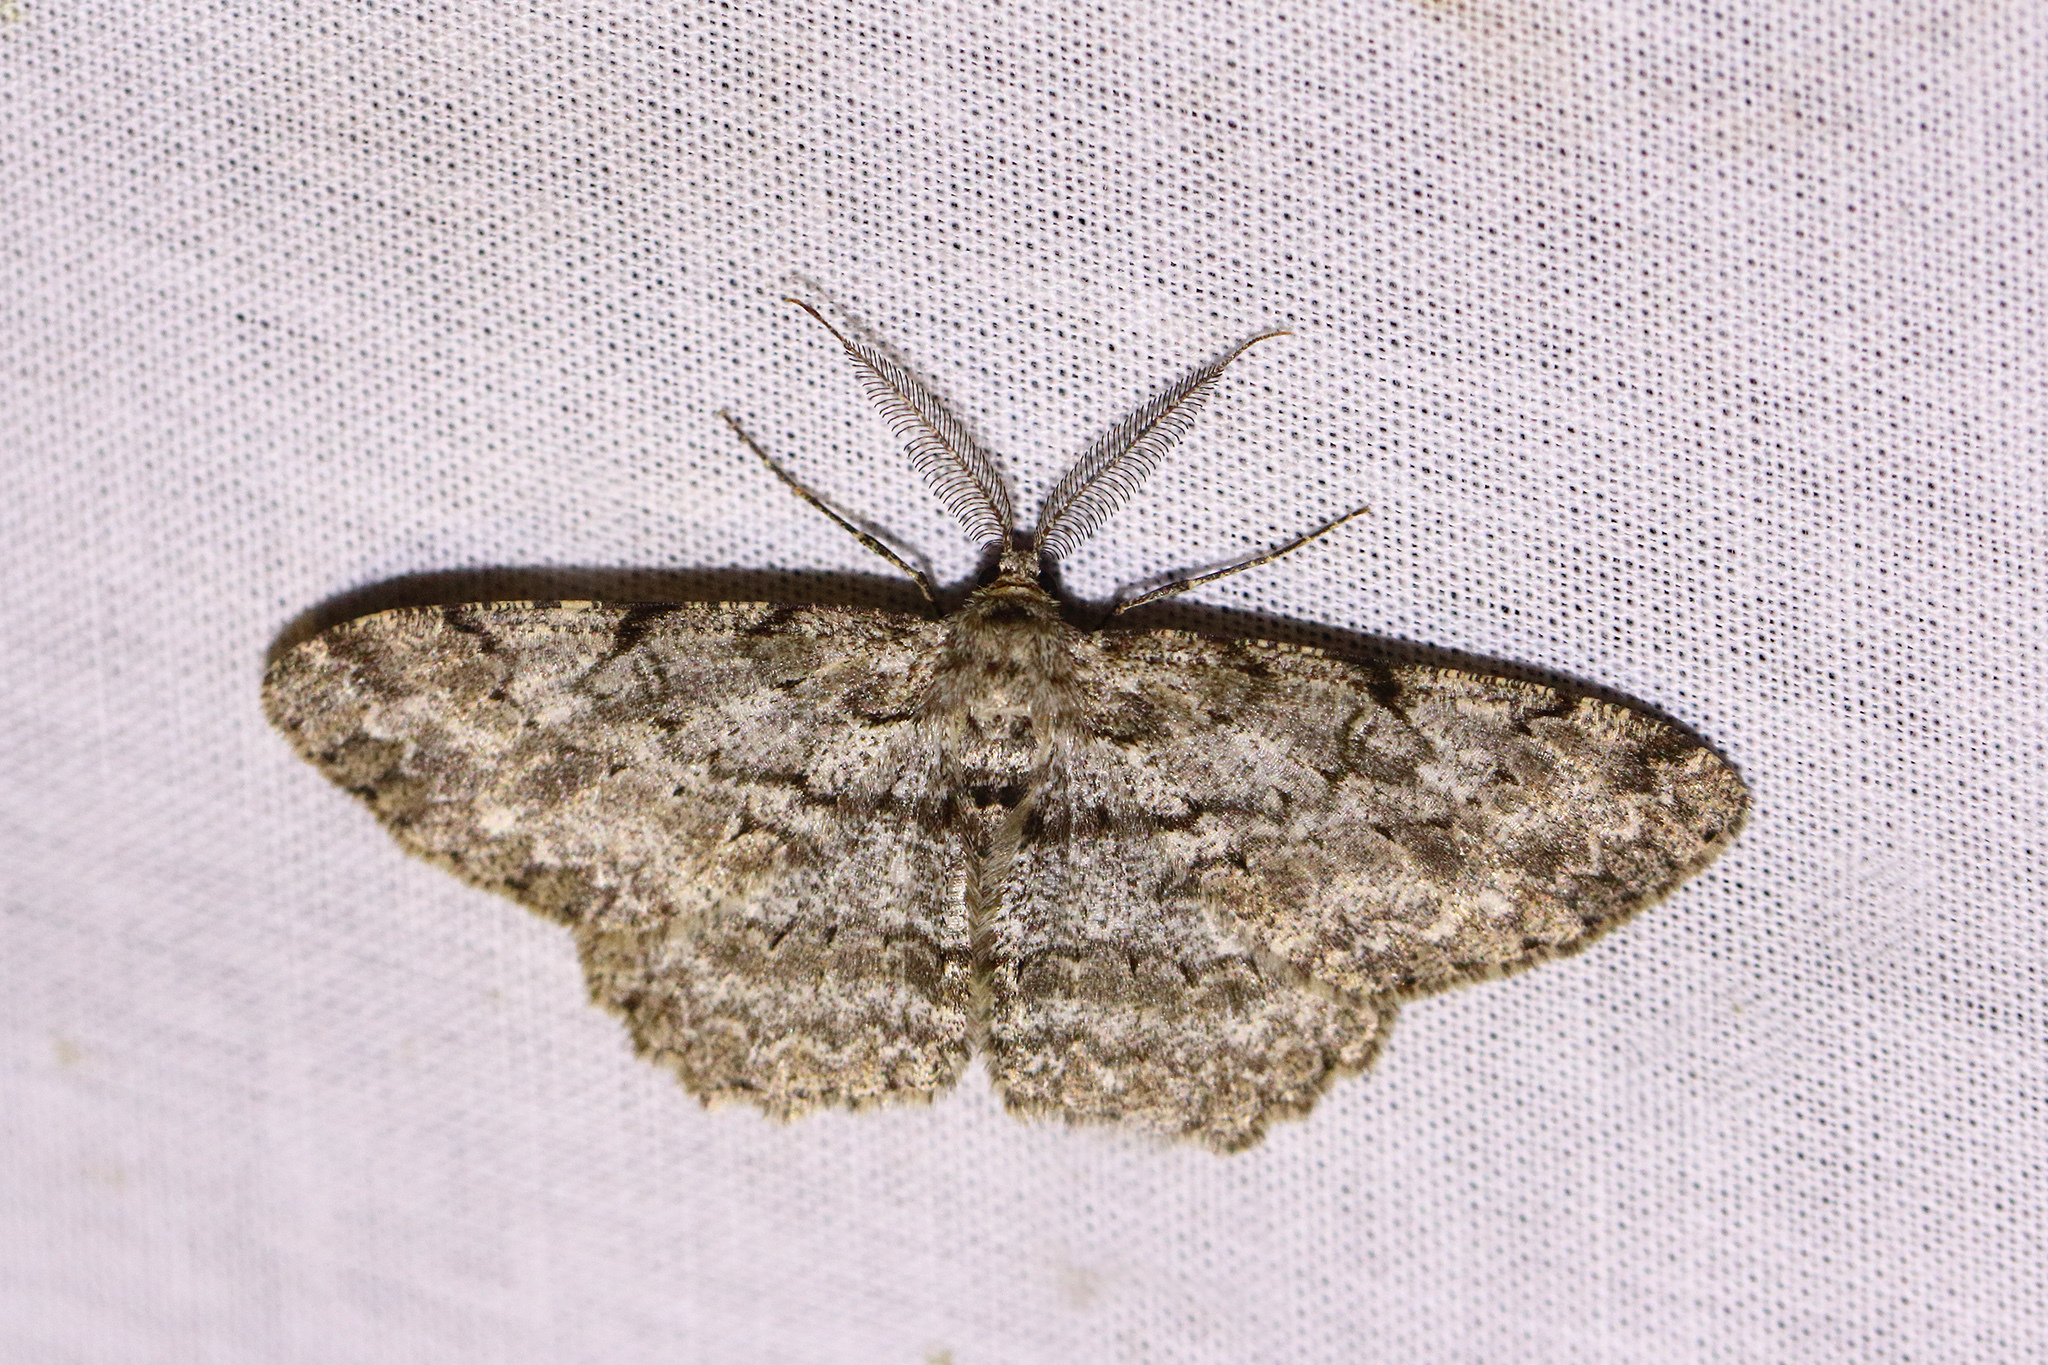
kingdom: Animalia
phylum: Arthropoda
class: Insecta
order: Lepidoptera
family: Geometridae
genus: Hypomecis
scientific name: Hypomecis punctinalis
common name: Pale oak beauty
